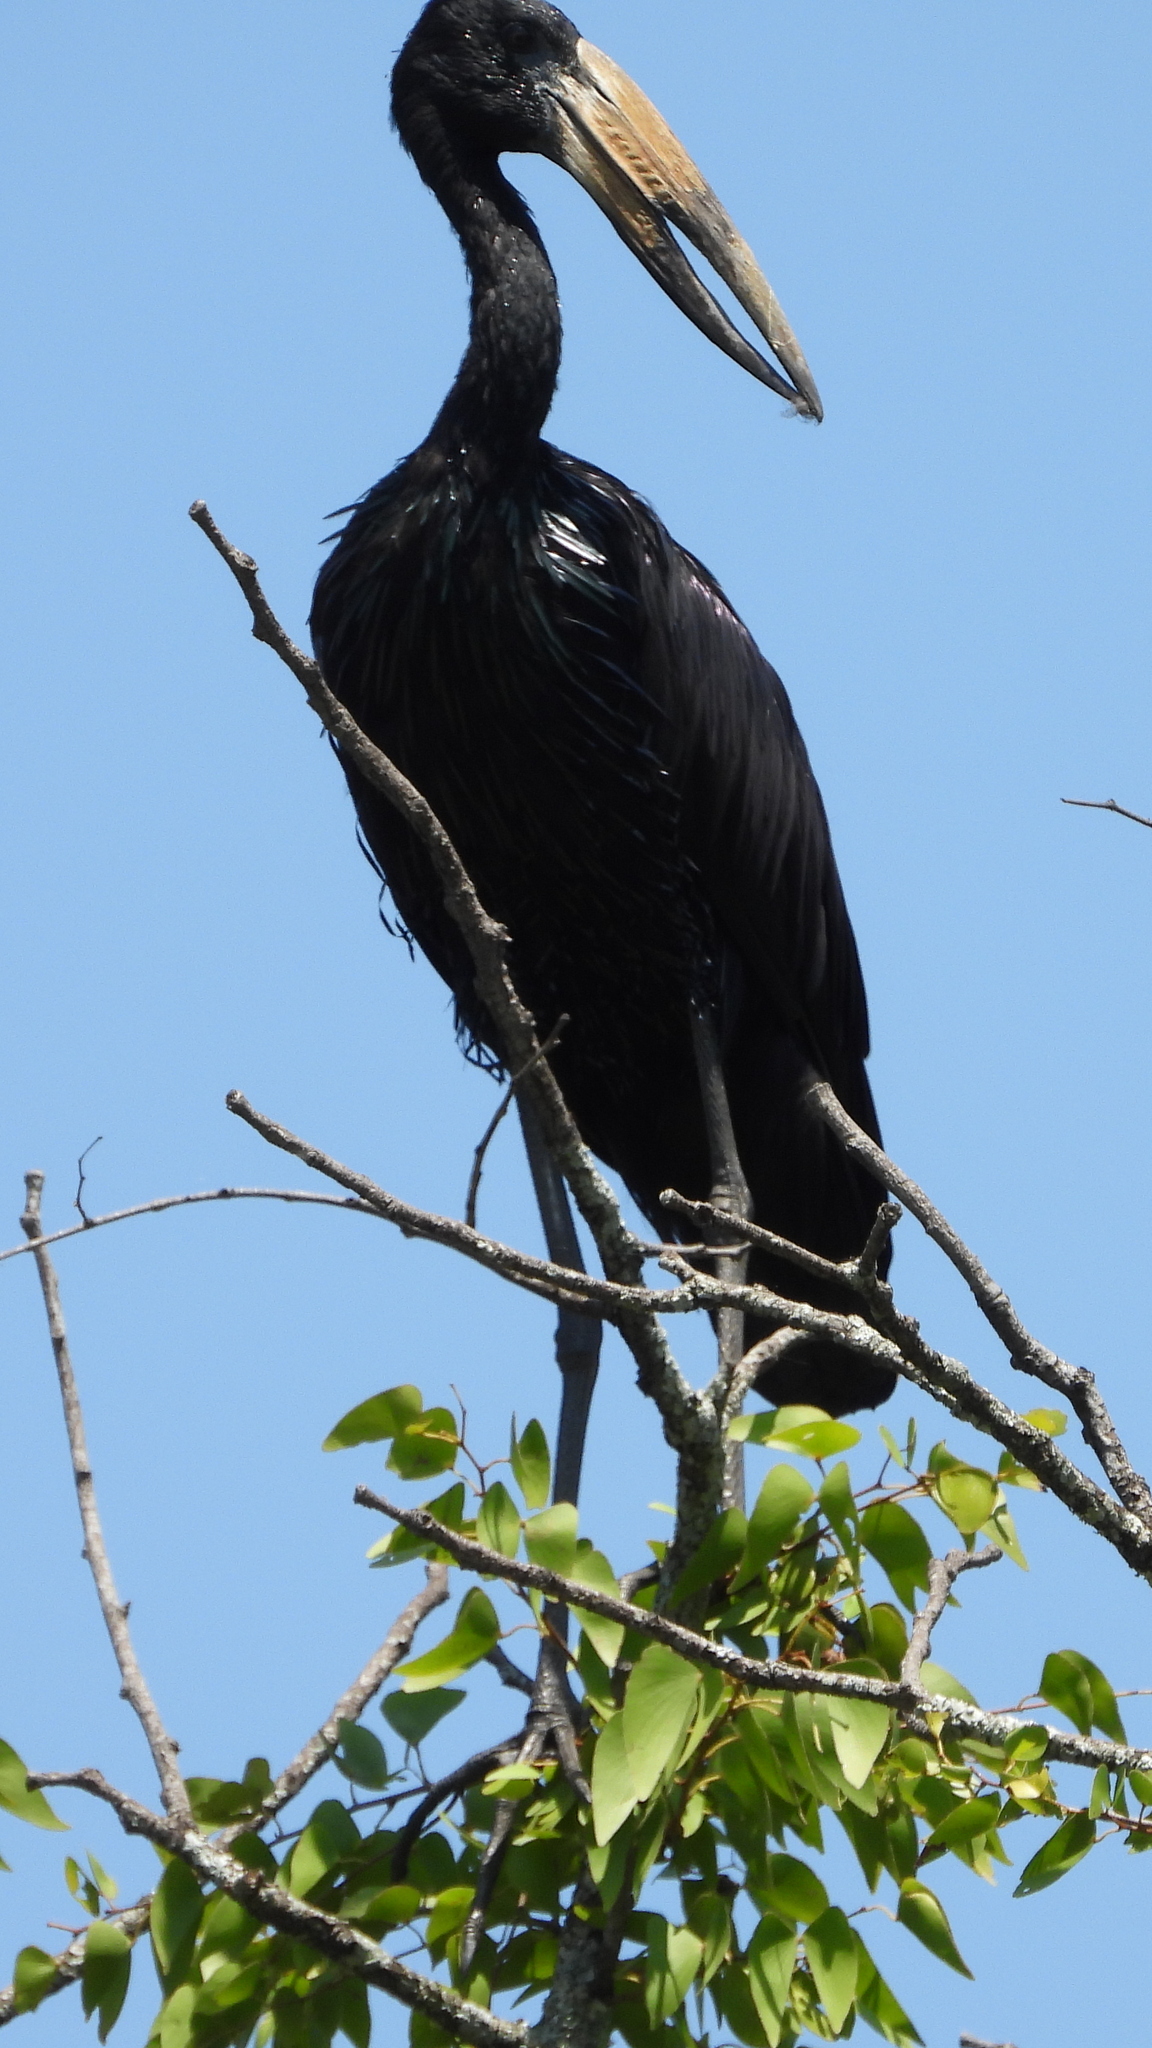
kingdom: Animalia
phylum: Chordata
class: Aves
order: Ciconiiformes
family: Ciconiidae
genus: Anastomus
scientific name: Anastomus lamelligerus
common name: African openbill
